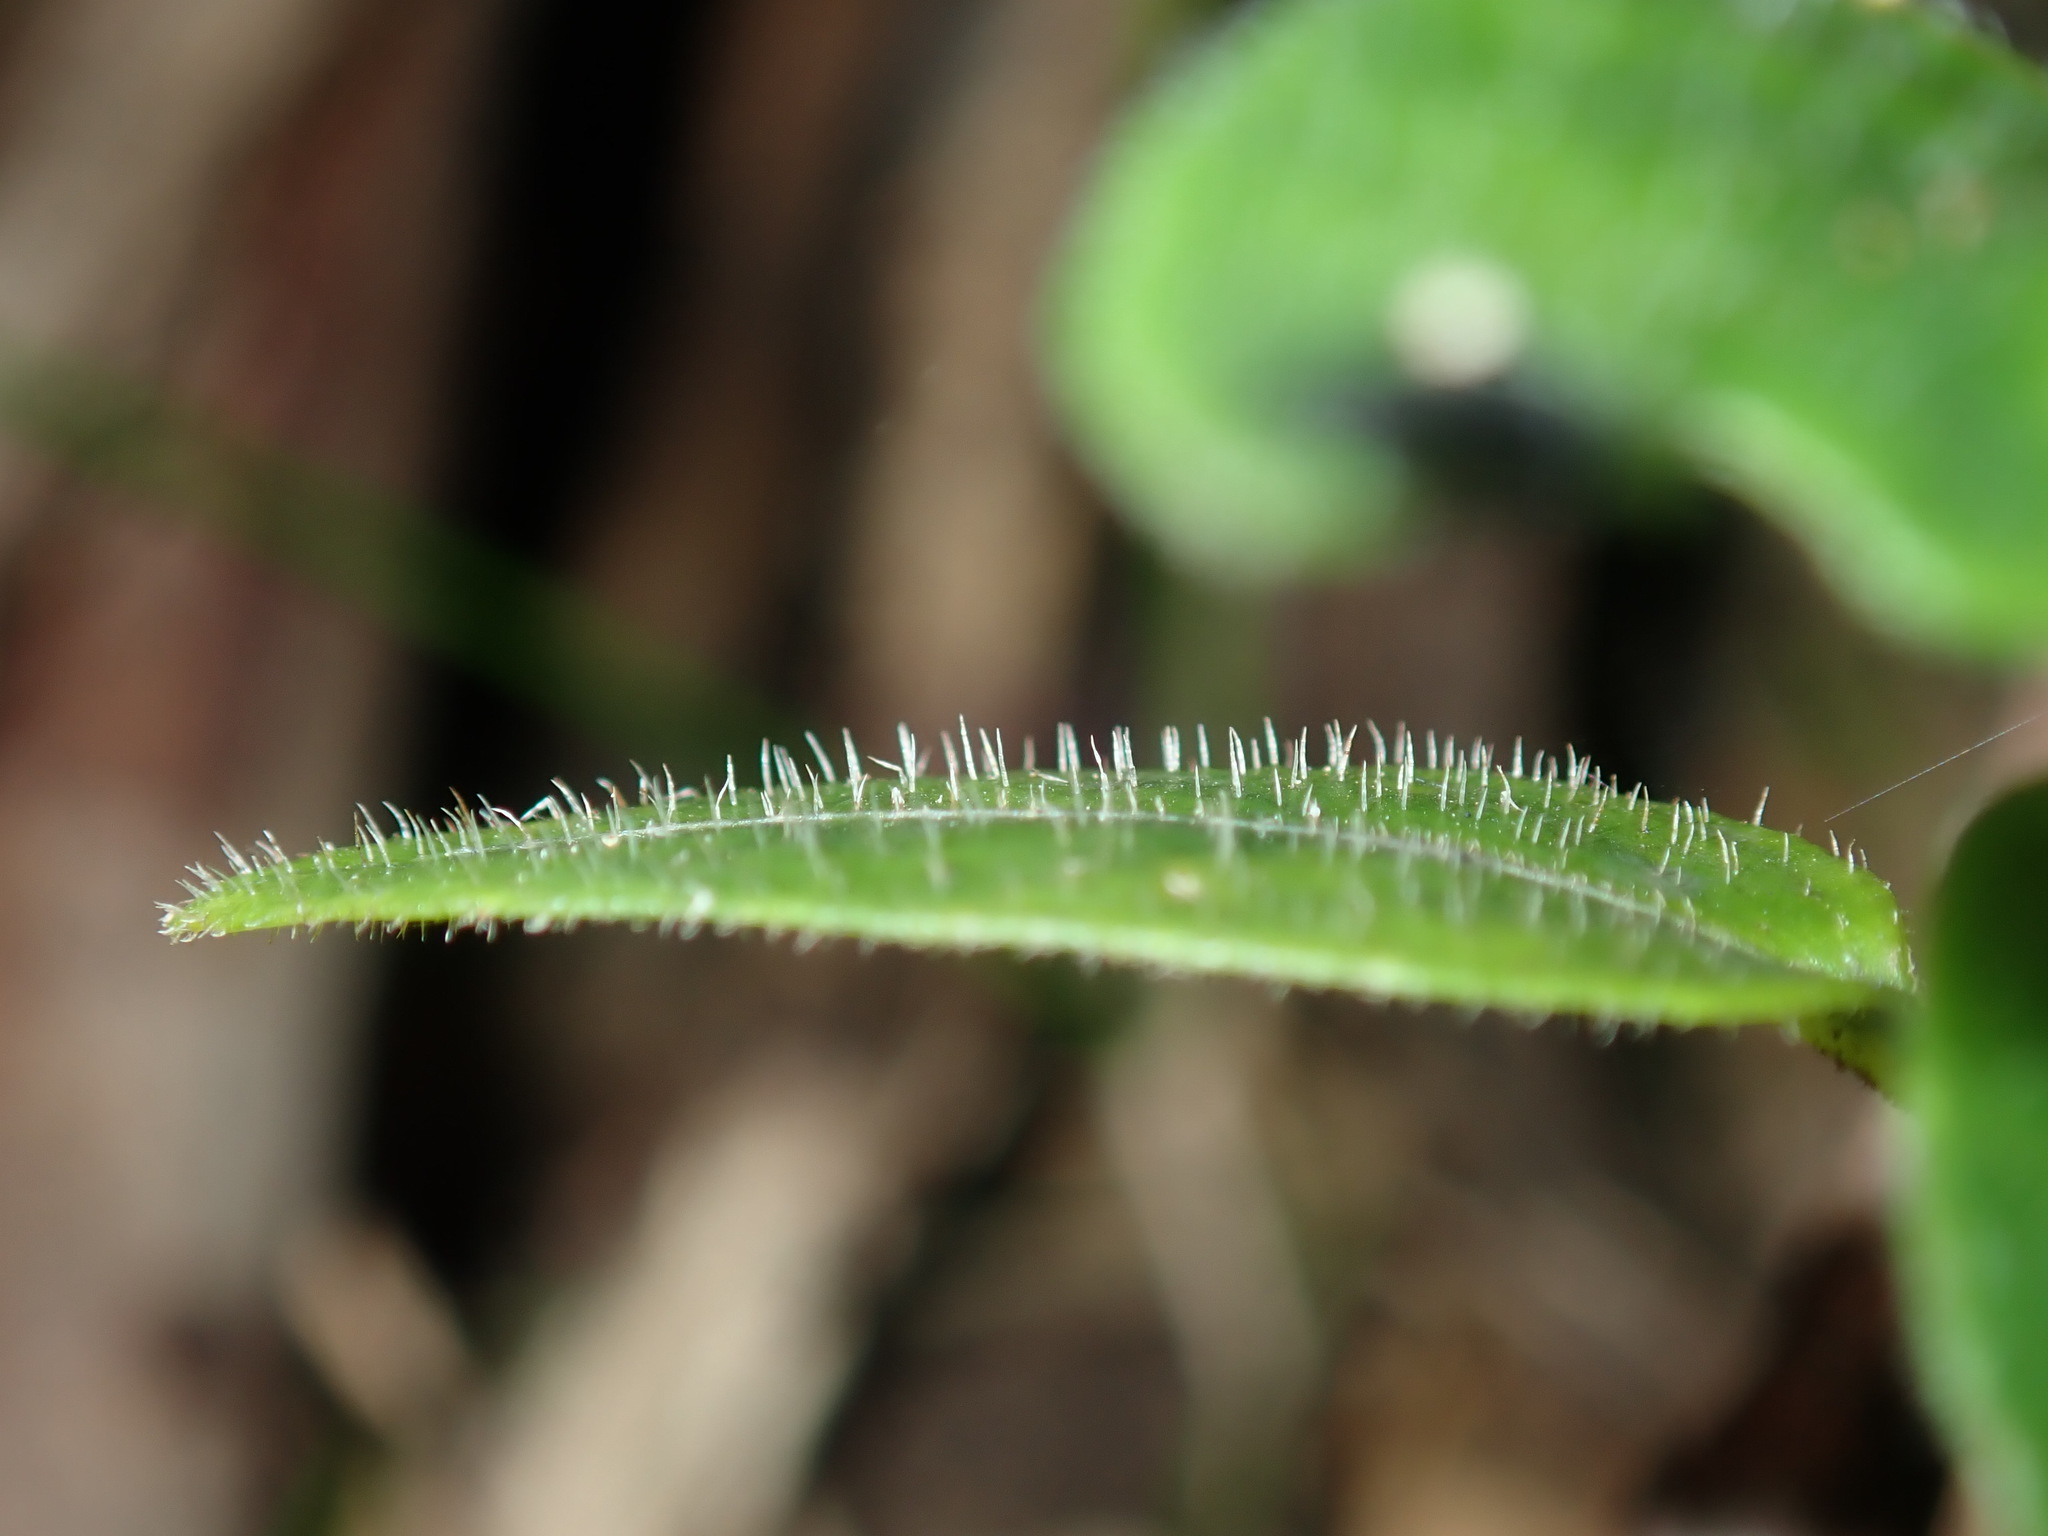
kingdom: Plantae
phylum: Tracheophyta
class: Magnoliopsida
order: Lamiales
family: Acanthaceae
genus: Pseuderanthemum
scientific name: Pseuderanthemum variabile
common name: Night and afternoon
